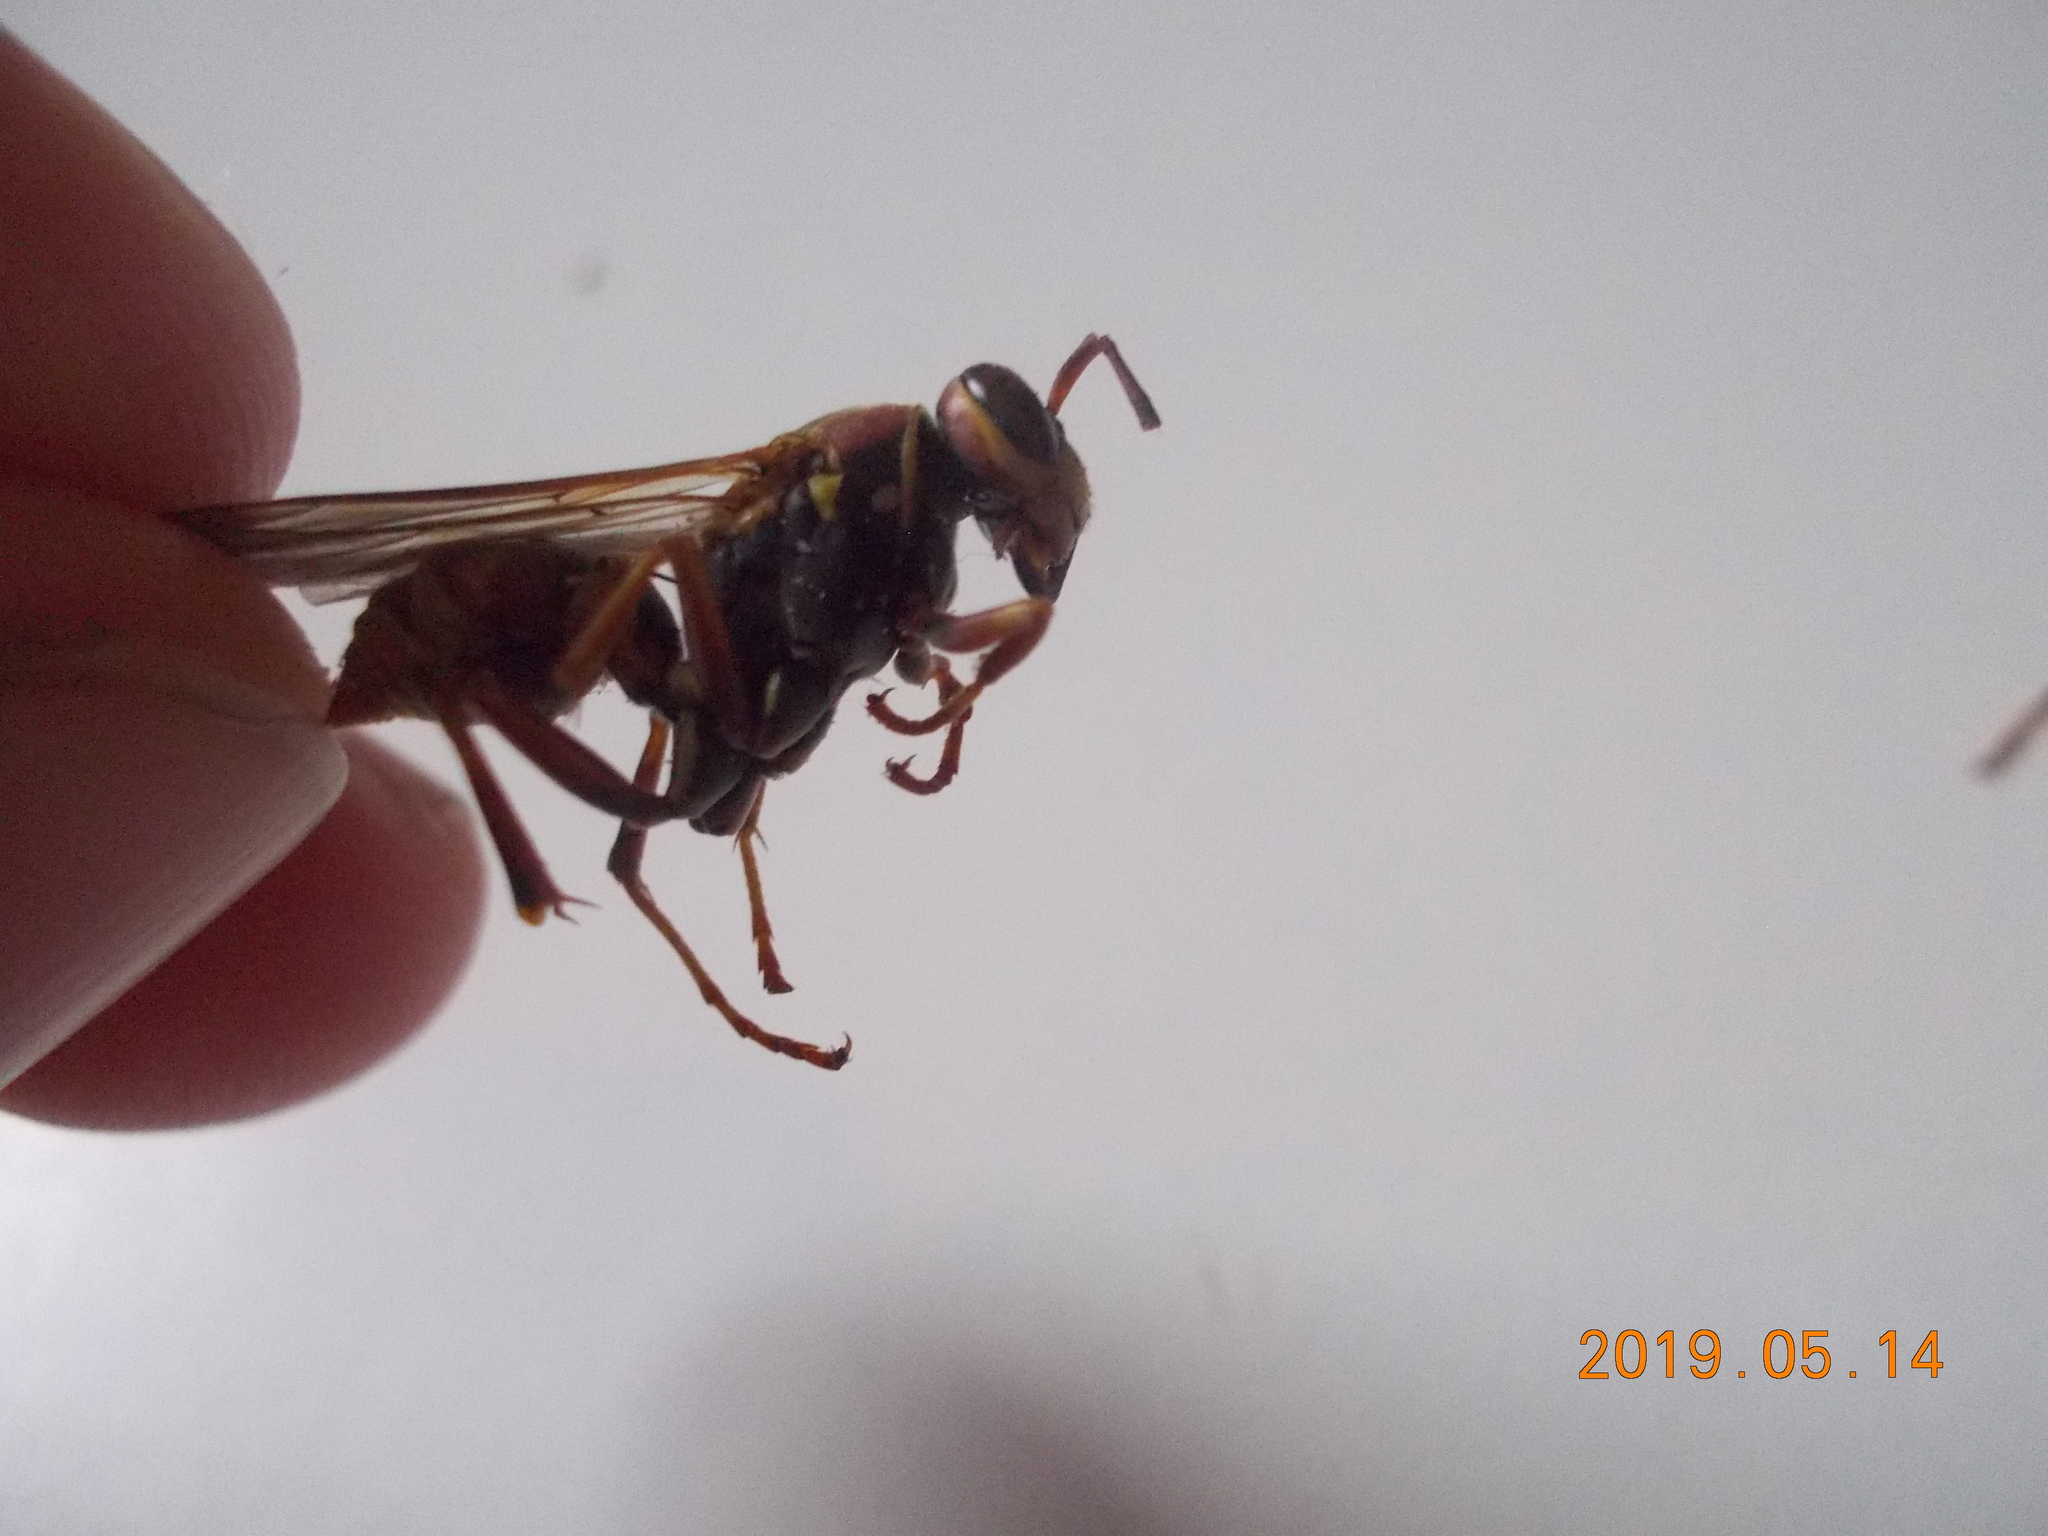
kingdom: Animalia
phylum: Arthropoda
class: Insecta
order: Hymenoptera
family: Eumenidae
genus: Polistes
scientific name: Polistes fuscatus
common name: Dark paper wasp
